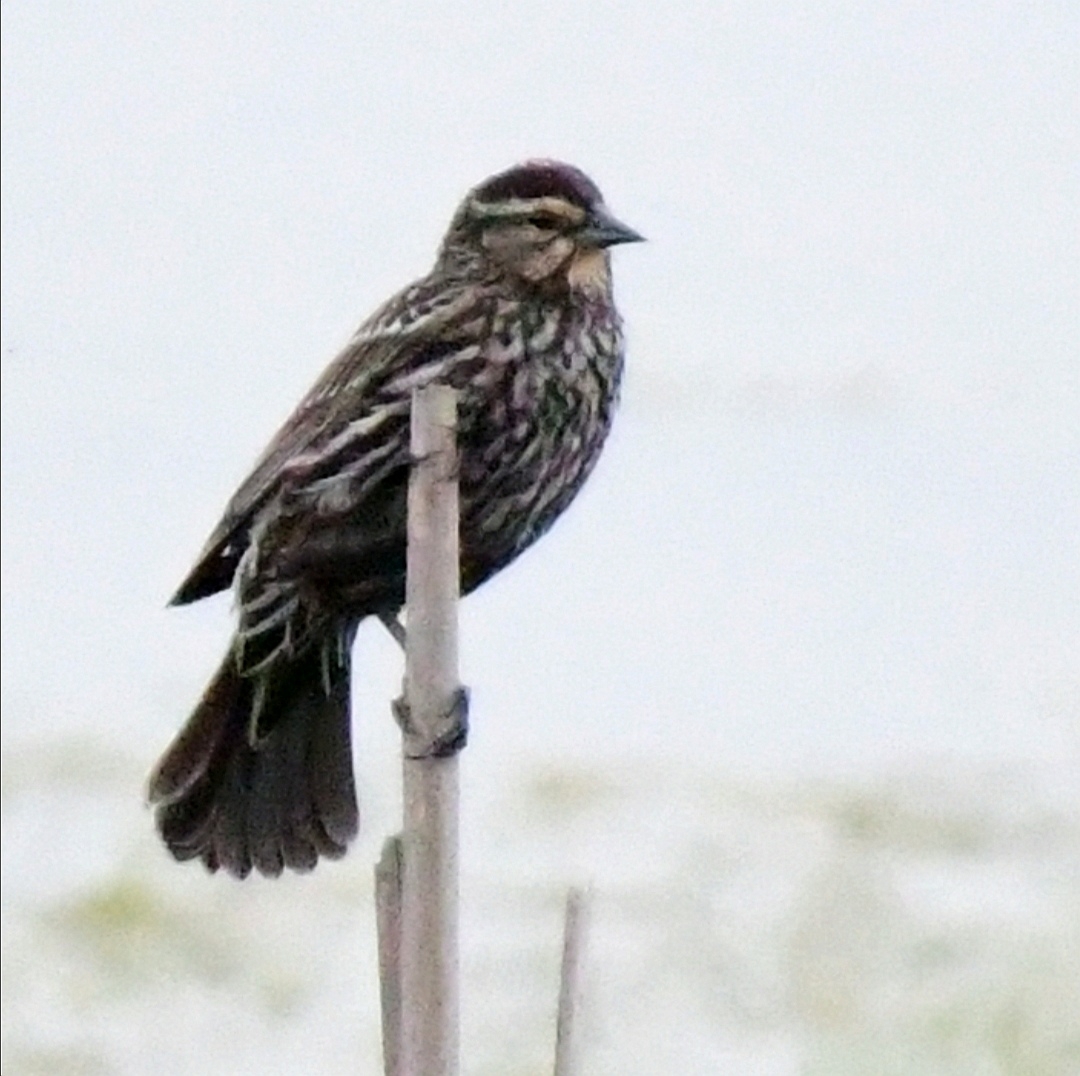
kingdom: Animalia
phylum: Chordata
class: Aves
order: Passeriformes
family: Icteridae
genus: Agelaius
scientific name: Agelaius phoeniceus
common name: Red-winged blackbird
